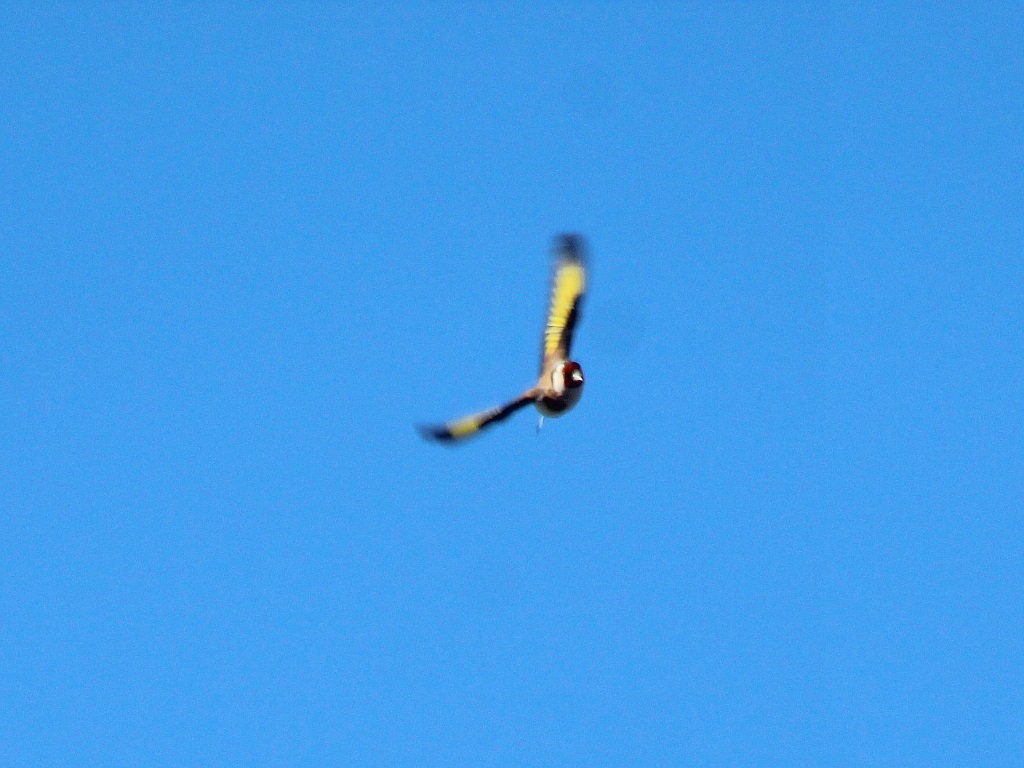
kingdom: Animalia
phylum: Chordata
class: Aves
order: Passeriformes
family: Fringillidae
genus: Carduelis
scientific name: Carduelis carduelis
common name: European goldfinch
